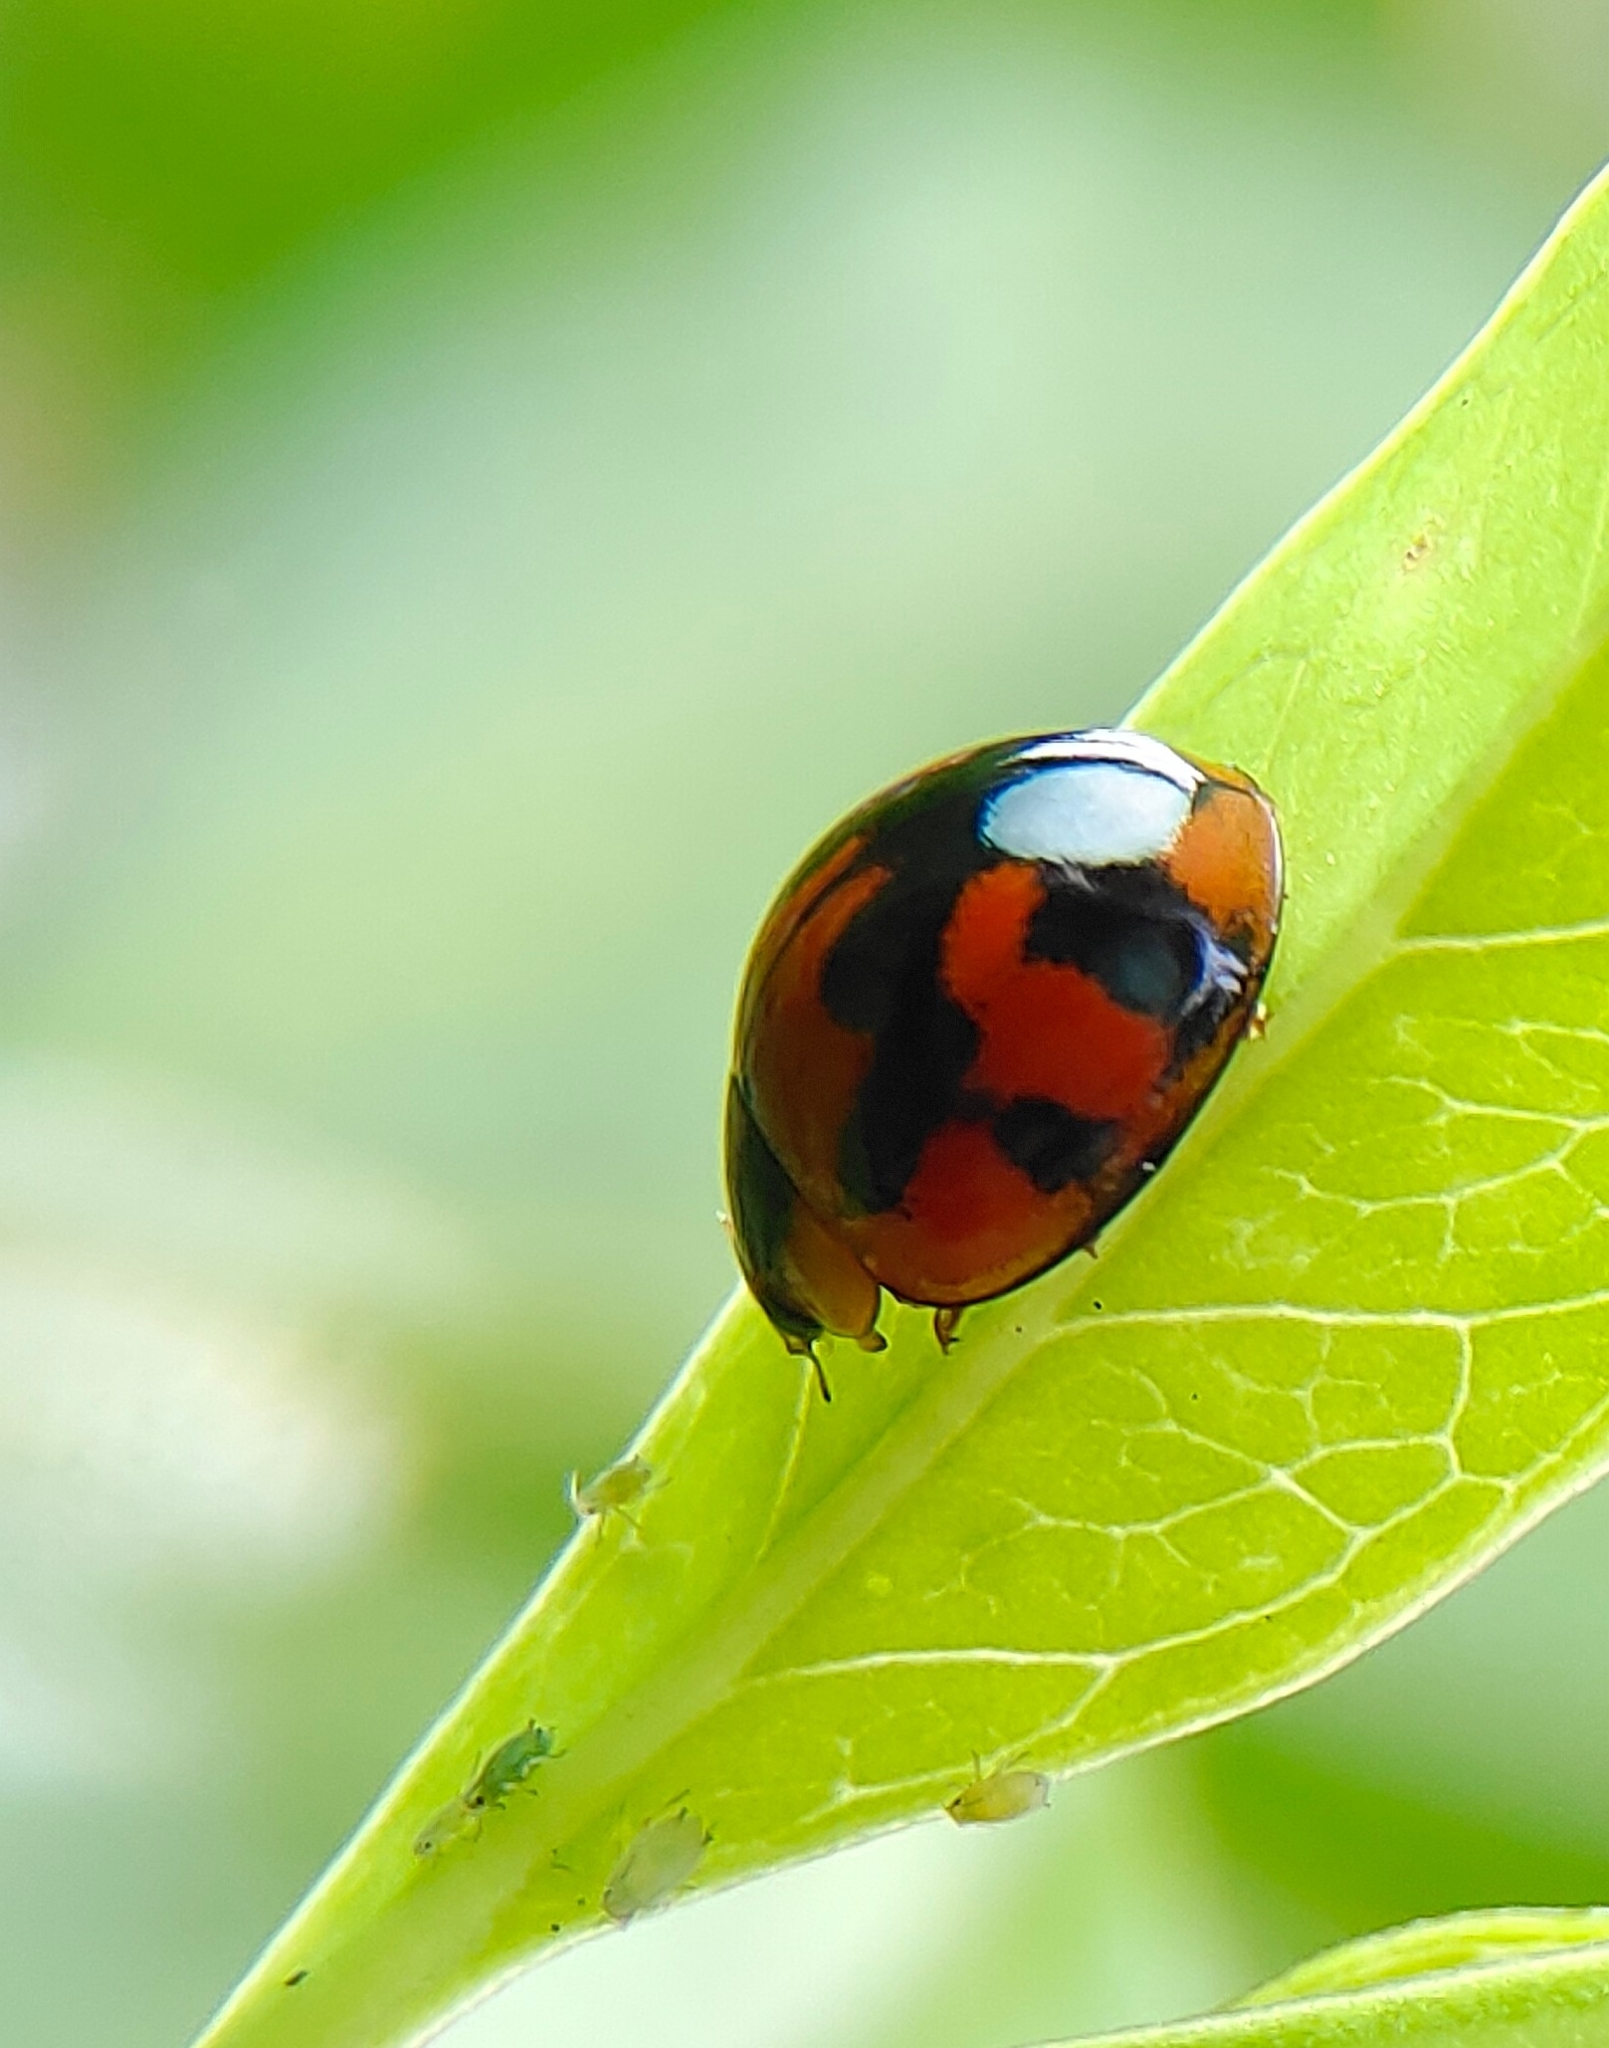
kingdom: Animalia
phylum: Arthropoda
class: Insecta
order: Coleoptera
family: Coccinellidae
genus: Coelophora
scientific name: Coelophora inaequalis
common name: Common australian lady beetle
